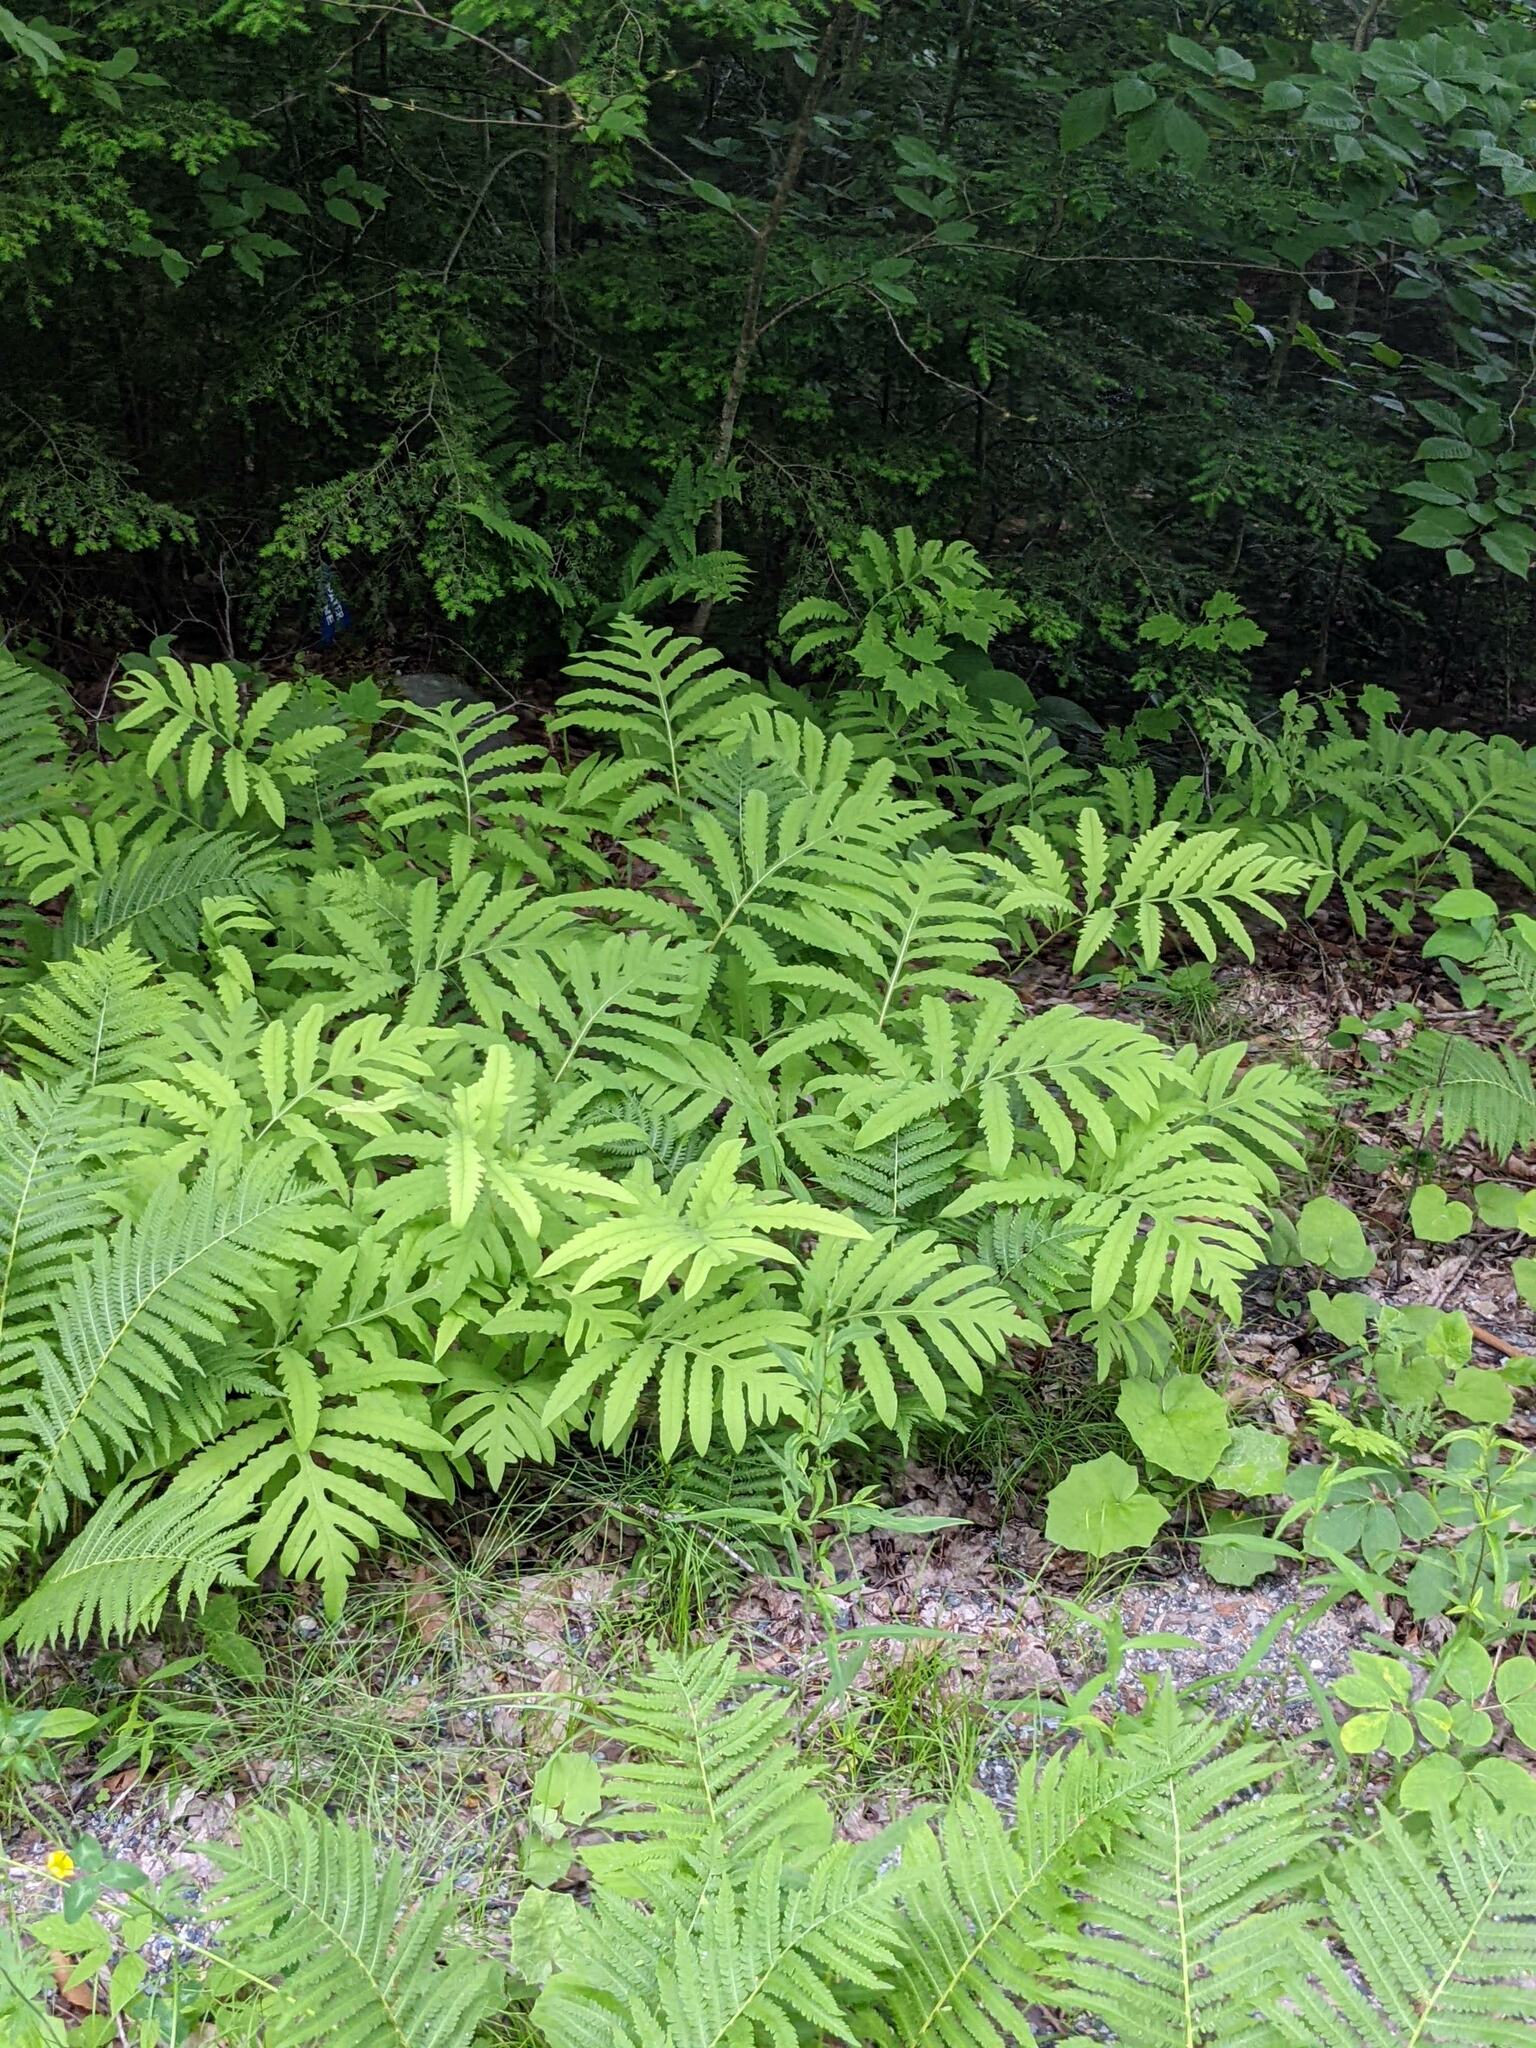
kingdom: Plantae
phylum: Tracheophyta
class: Polypodiopsida
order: Polypodiales
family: Onocleaceae
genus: Onoclea
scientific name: Onoclea sensibilis
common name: Sensitive fern
